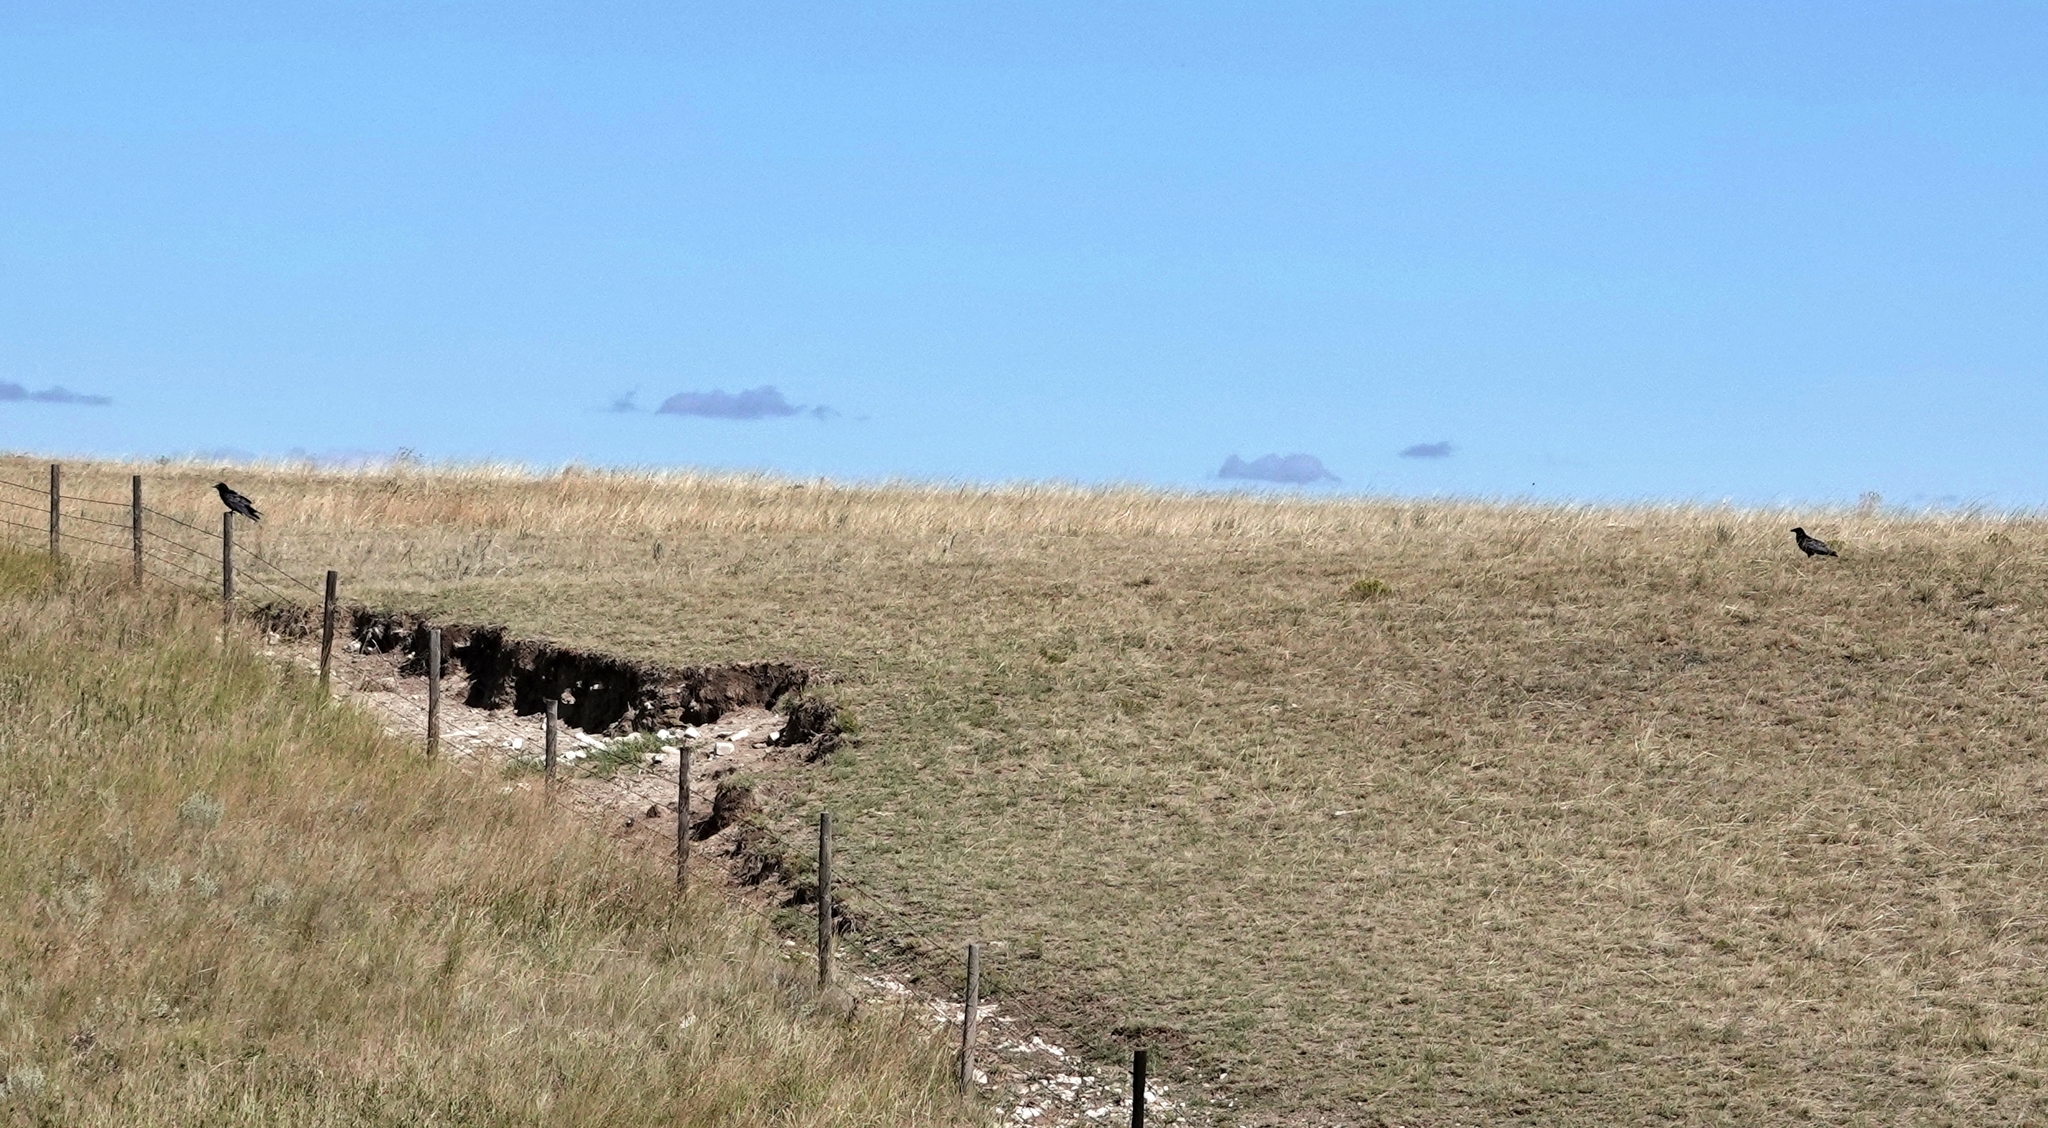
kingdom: Animalia
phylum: Chordata
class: Aves
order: Passeriformes
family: Corvidae
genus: Corvus
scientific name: Corvus corax
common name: Common raven
